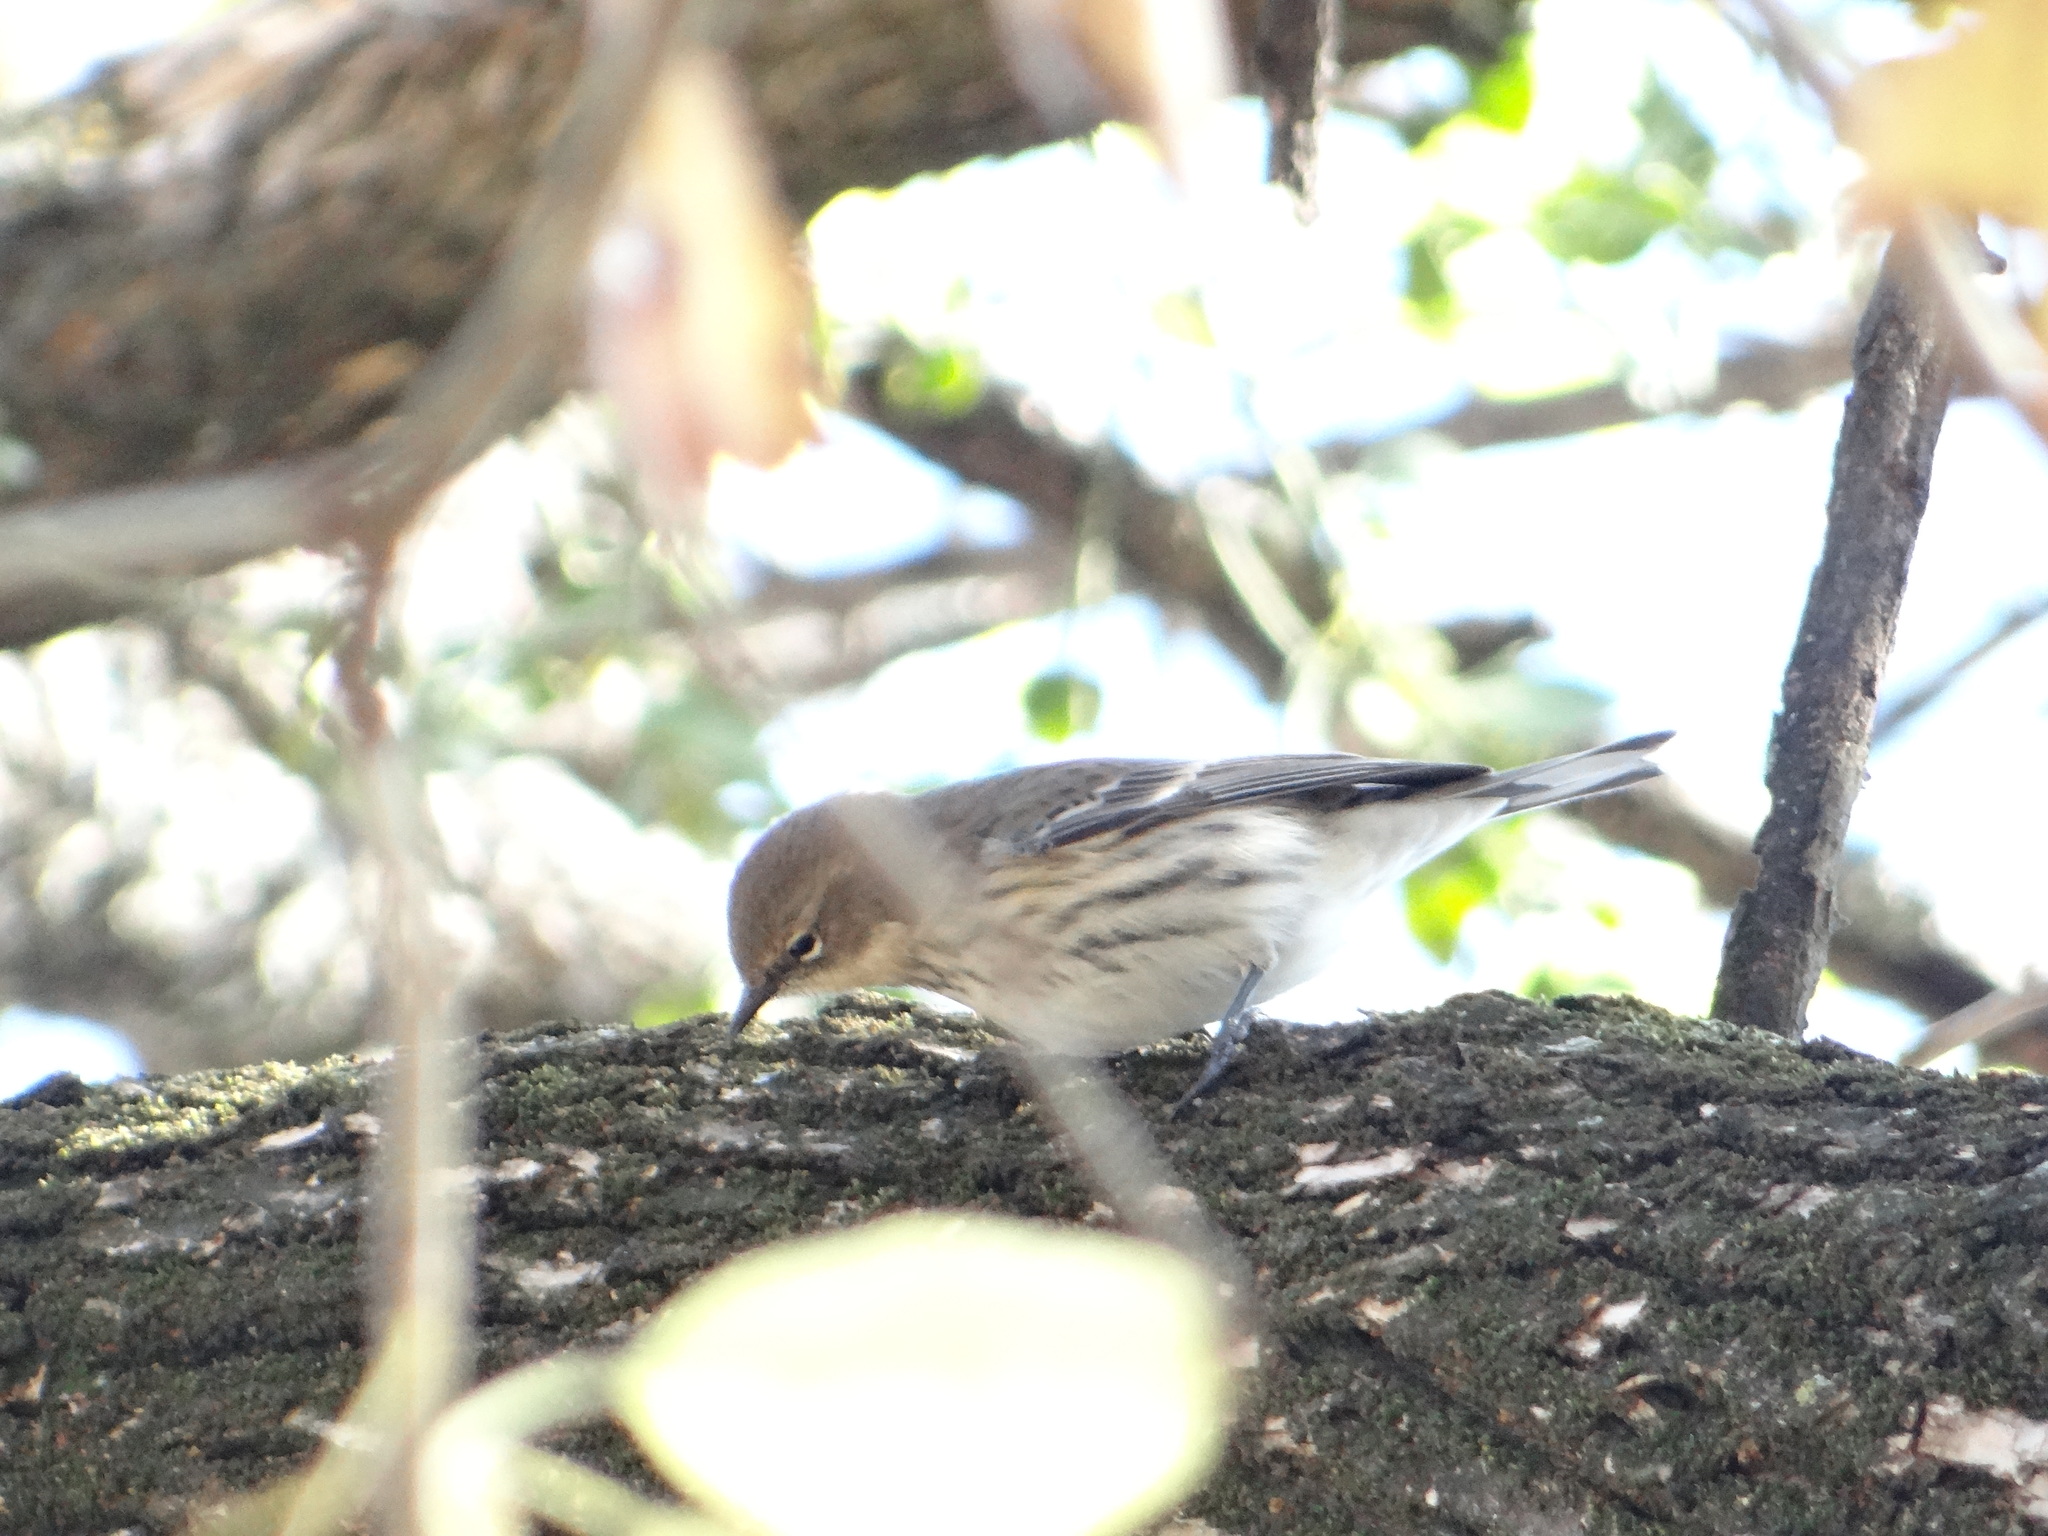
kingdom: Animalia
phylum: Chordata
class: Aves
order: Passeriformes
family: Parulidae
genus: Setophaga
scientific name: Setophaga coronata
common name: Myrtle warbler
